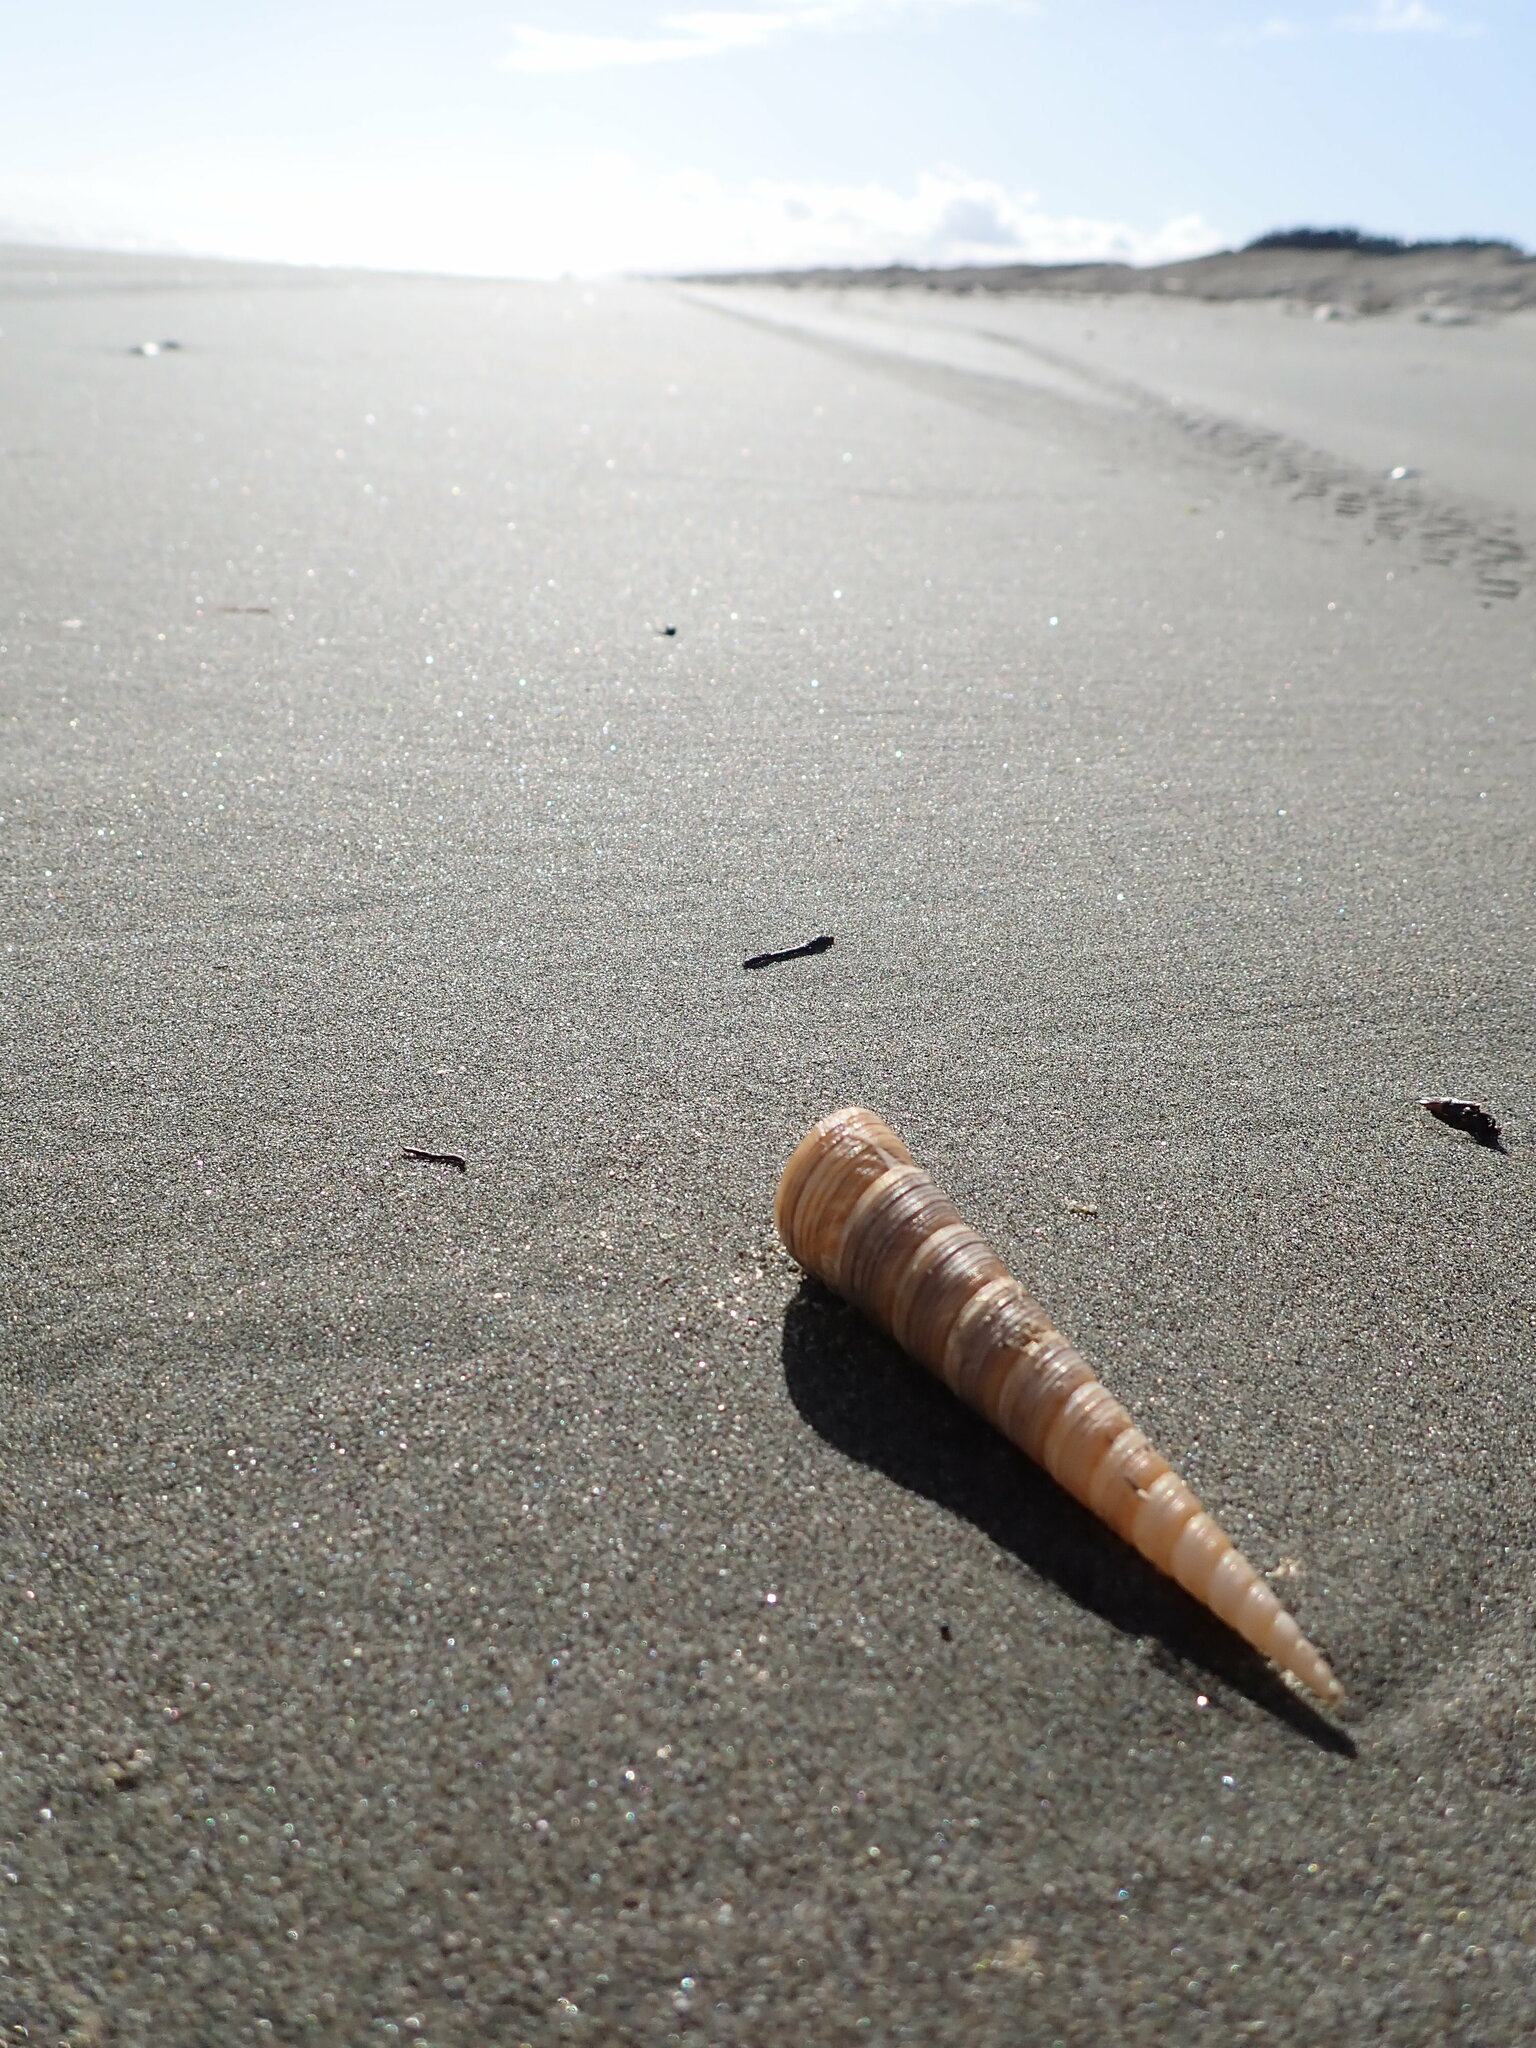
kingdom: Animalia
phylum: Mollusca
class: Gastropoda
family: Turritellidae
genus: Zeacolpus
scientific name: Zeacolpus vittatus
